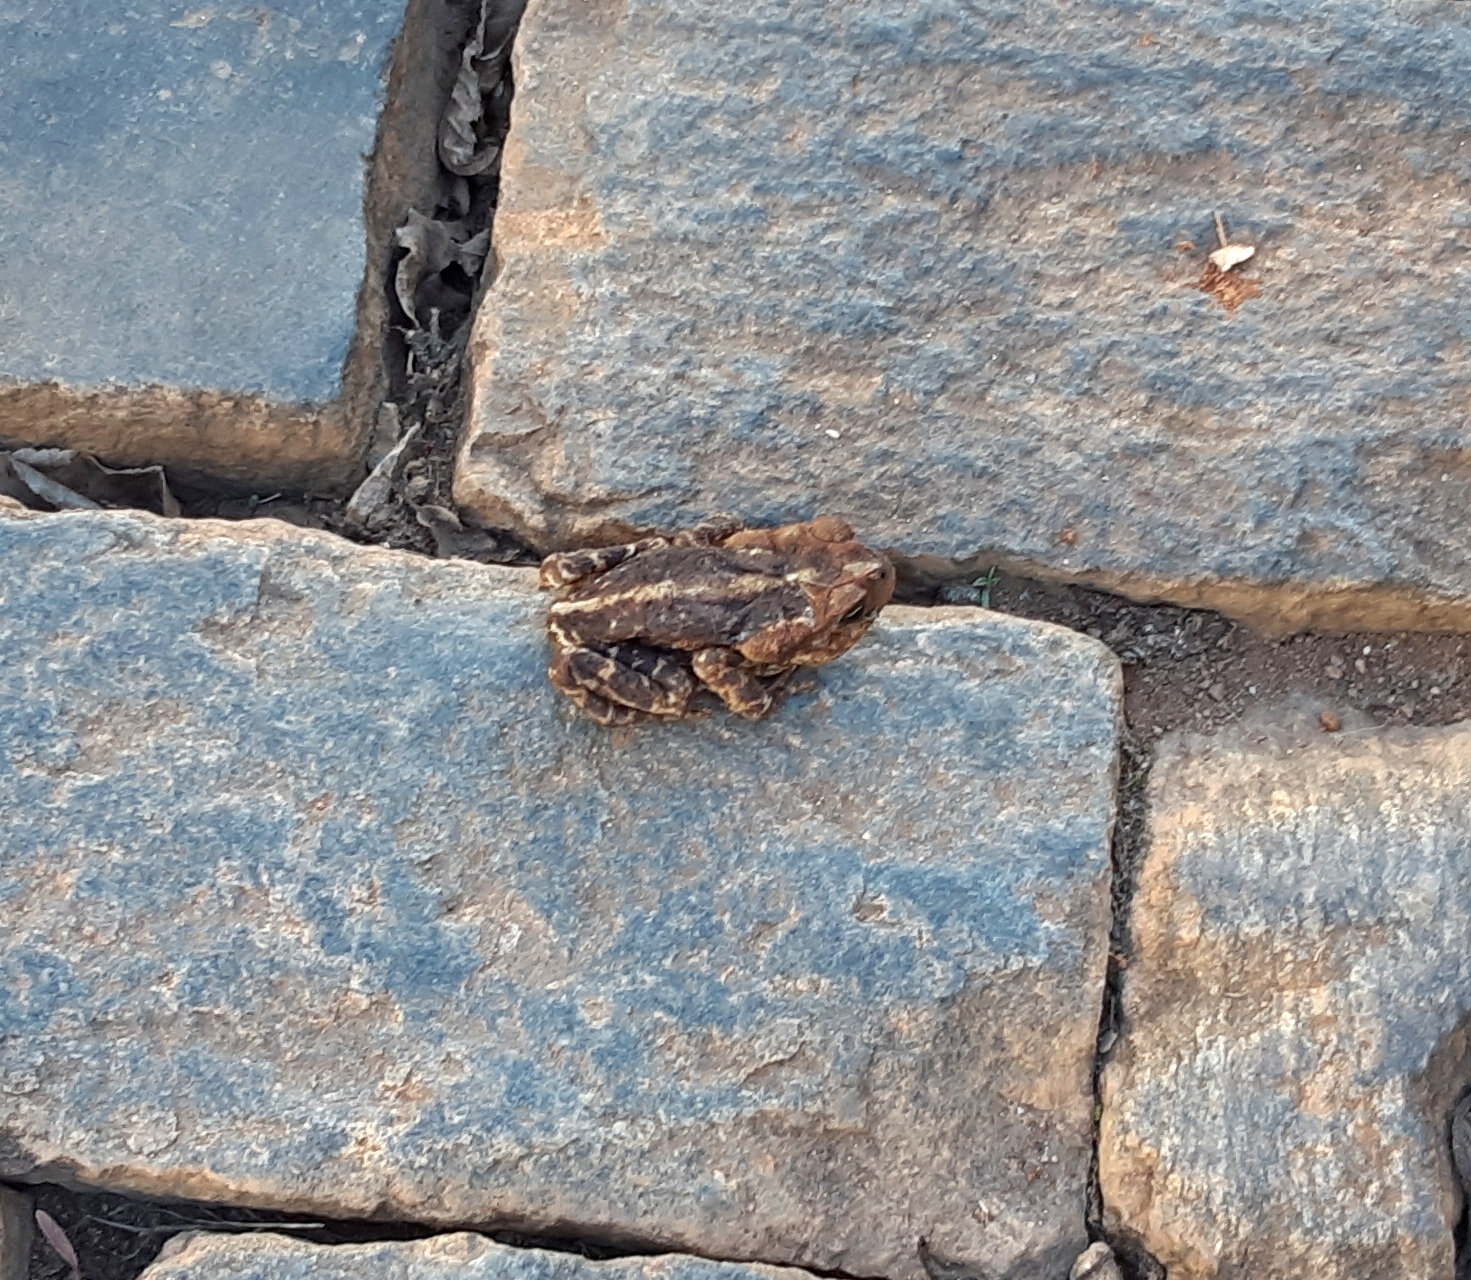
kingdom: Animalia
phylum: Chordata
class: Amphibia
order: Anura
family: Bufonidae
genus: Rhinella
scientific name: Rhinella icterica
